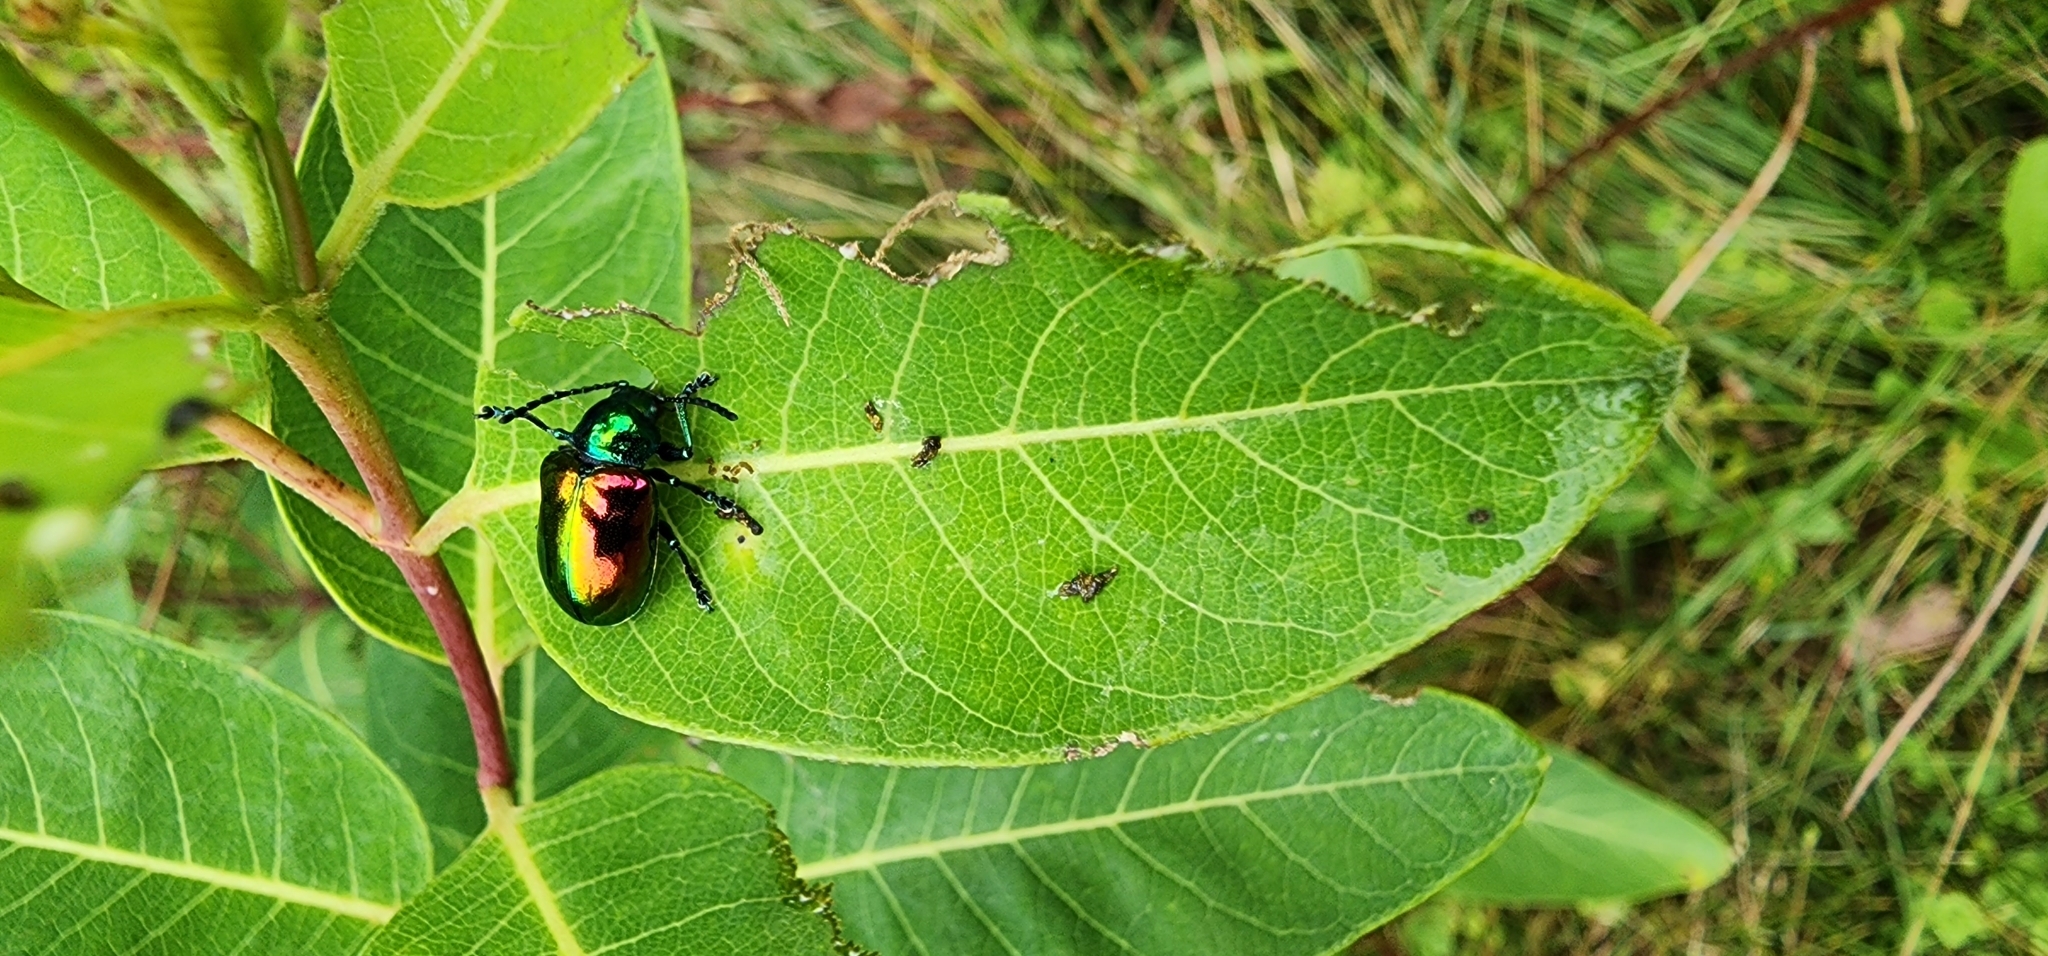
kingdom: Animalia
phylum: Arthropoda
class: Insecta
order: Coleoptera
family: Chrysomelidae
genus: Chrysochus
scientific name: Chrysochus auratus
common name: Dogbane leaf beetle
